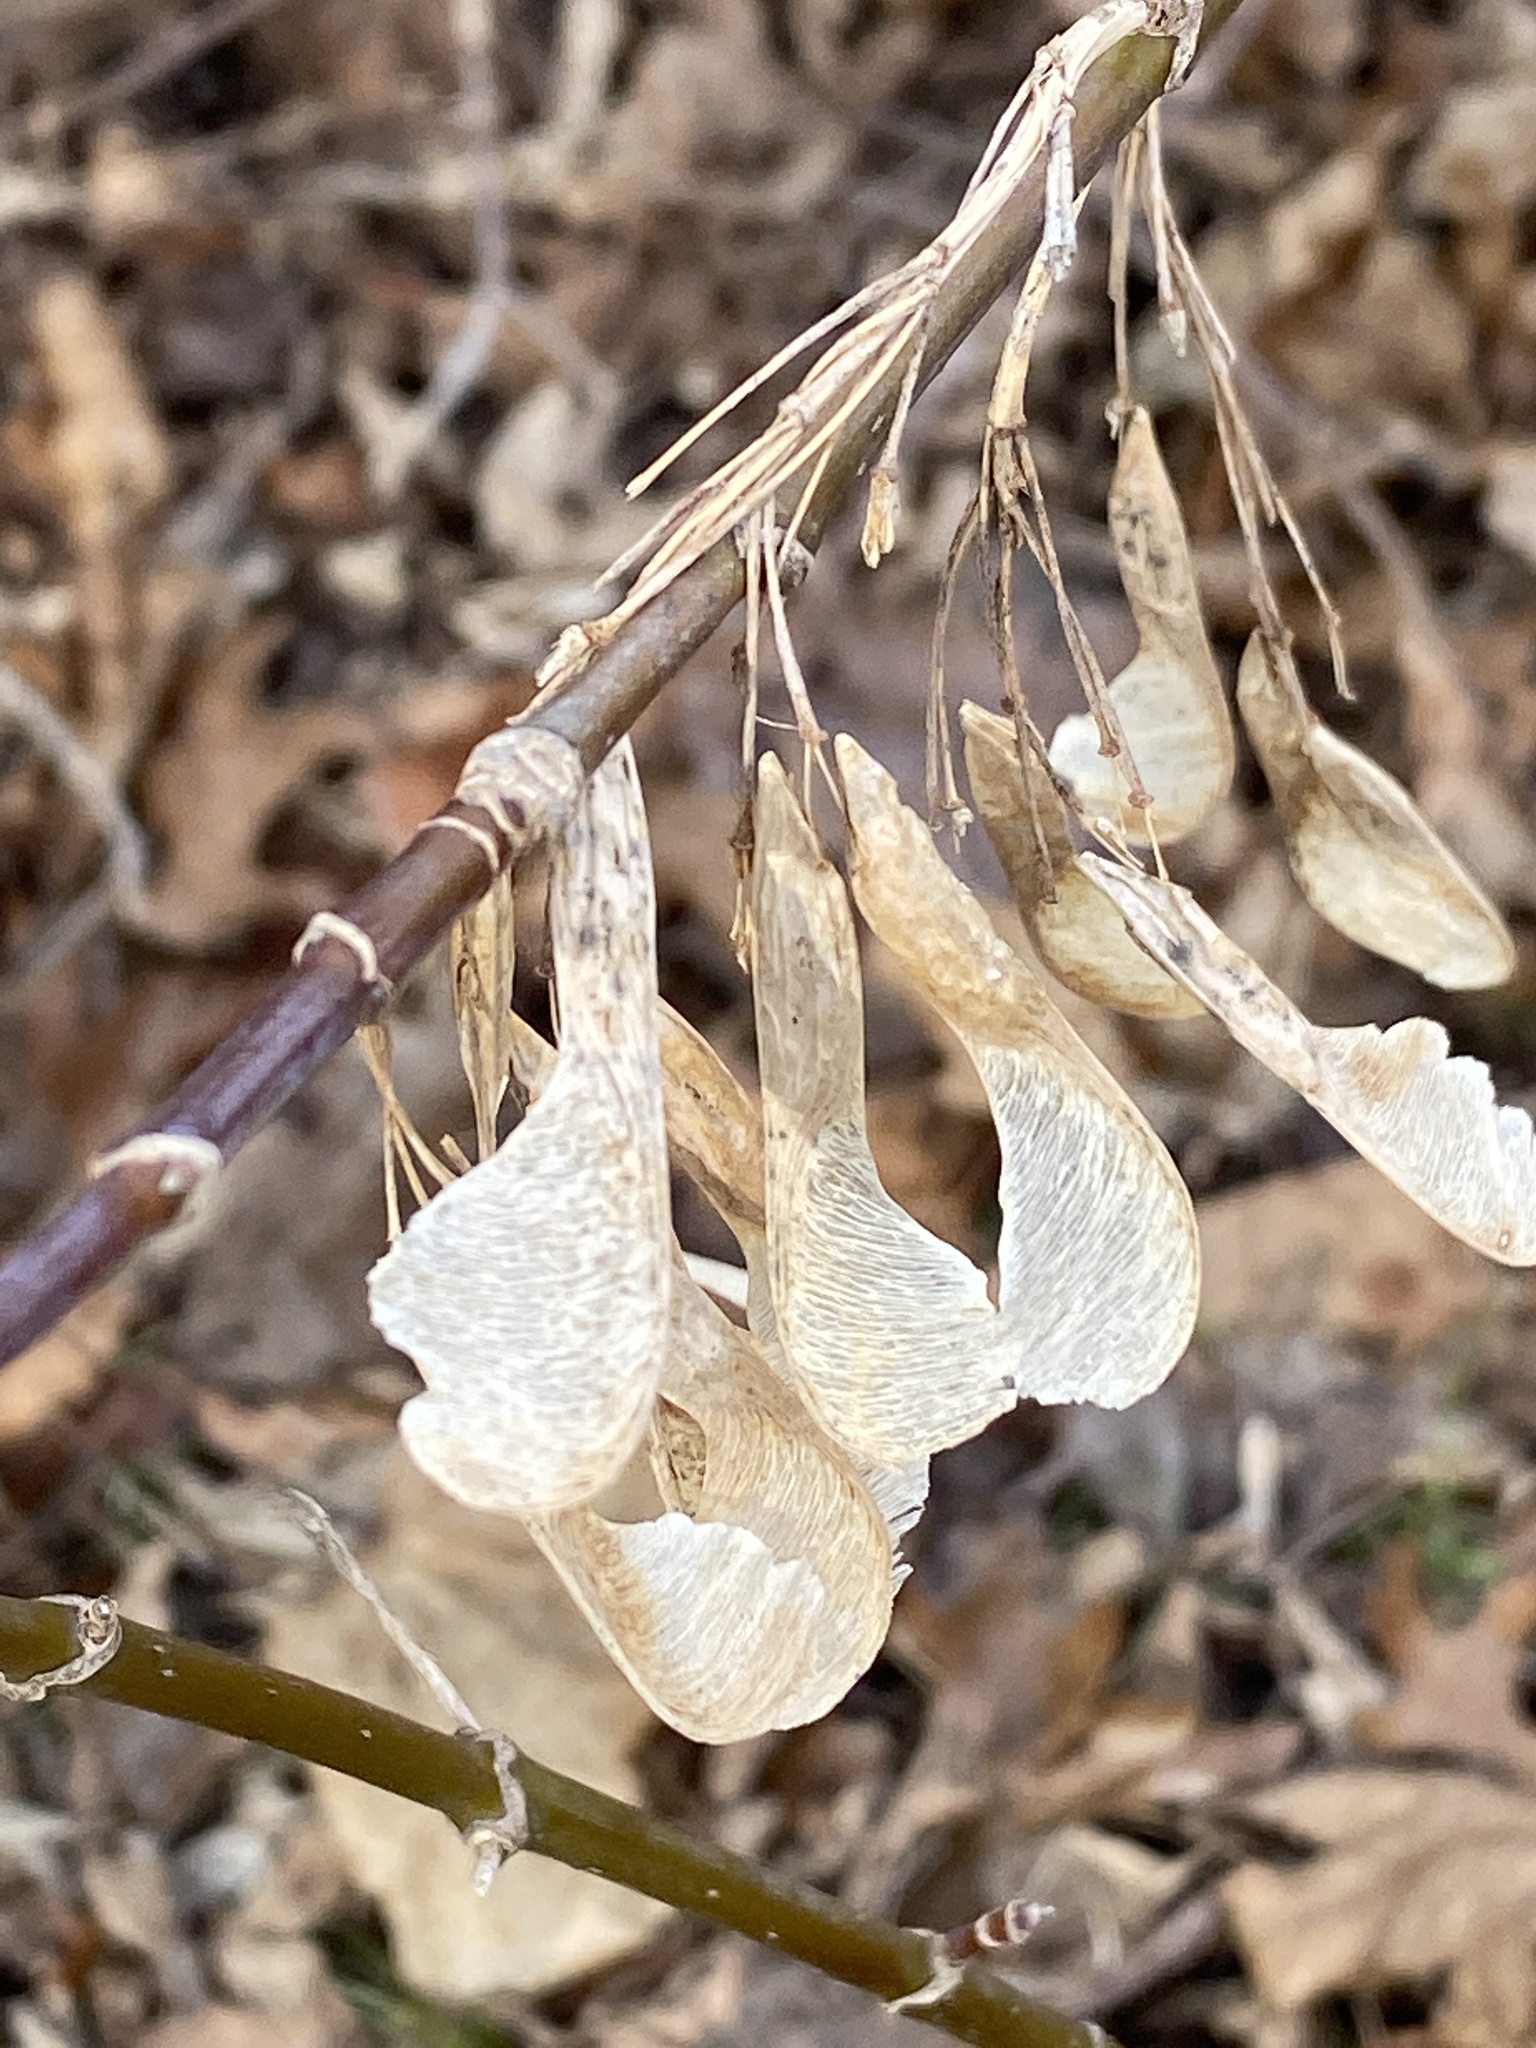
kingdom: Plantae
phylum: Tracheophyta
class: Magnoliopsida
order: Sapindales
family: Sapindaceae
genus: Acer
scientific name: Acer negundo
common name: Ashleaf maple
